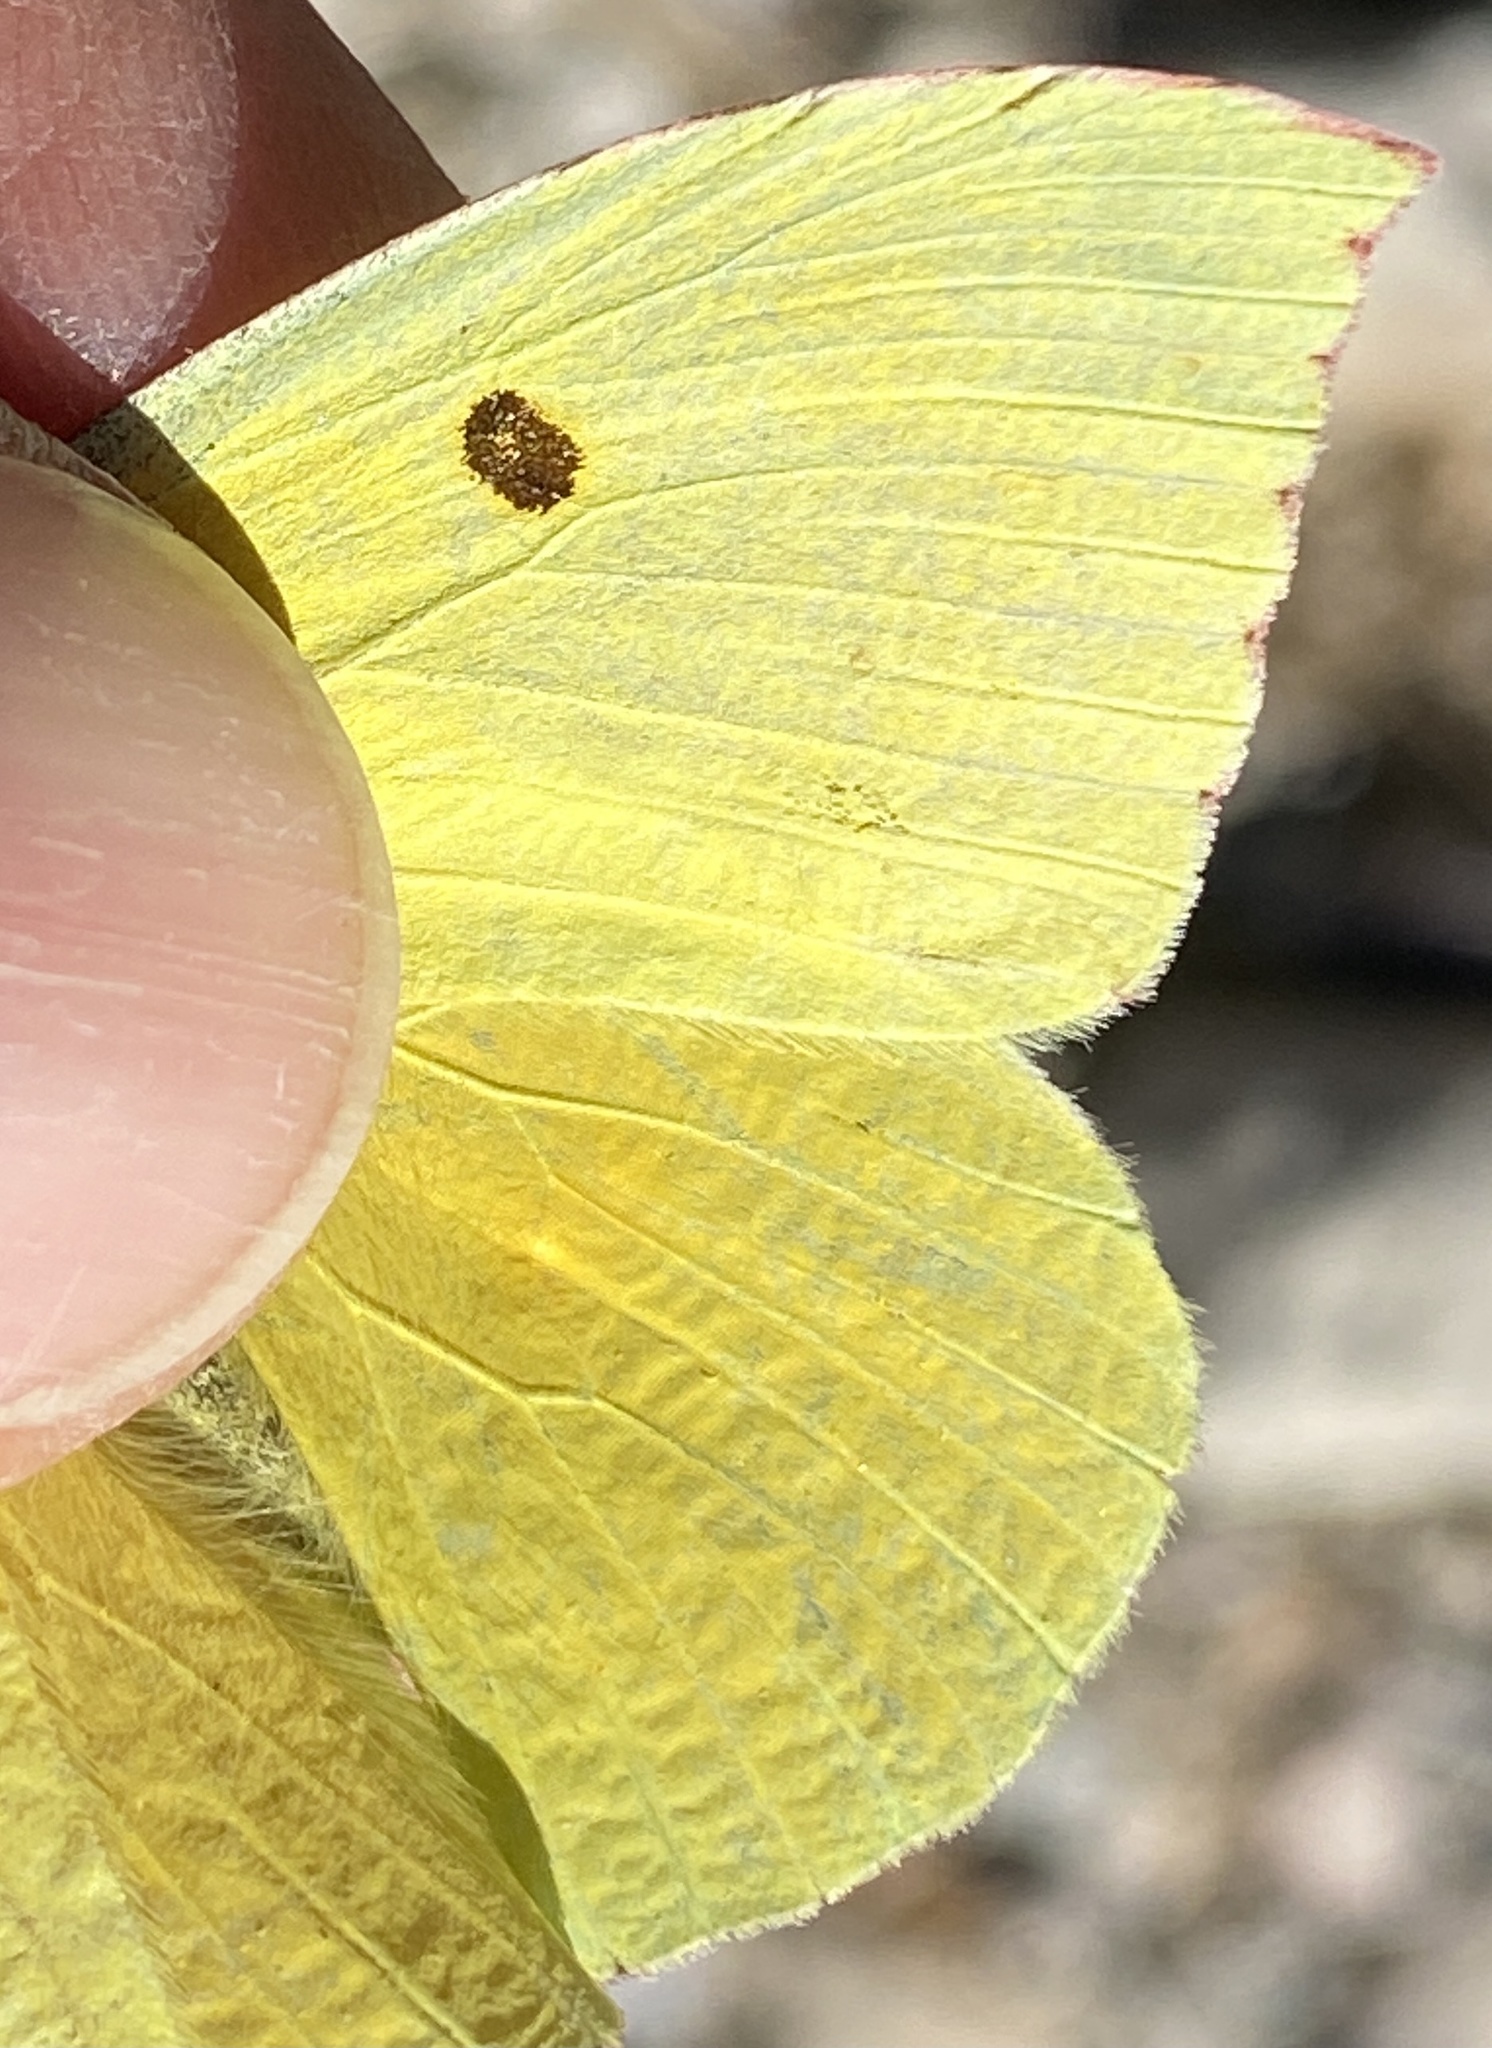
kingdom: Animalia
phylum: Arthropoda
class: Insecta
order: Lepidoptera
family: Pieridae
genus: Zerene
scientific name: Zerene eurydice
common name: California dogface
